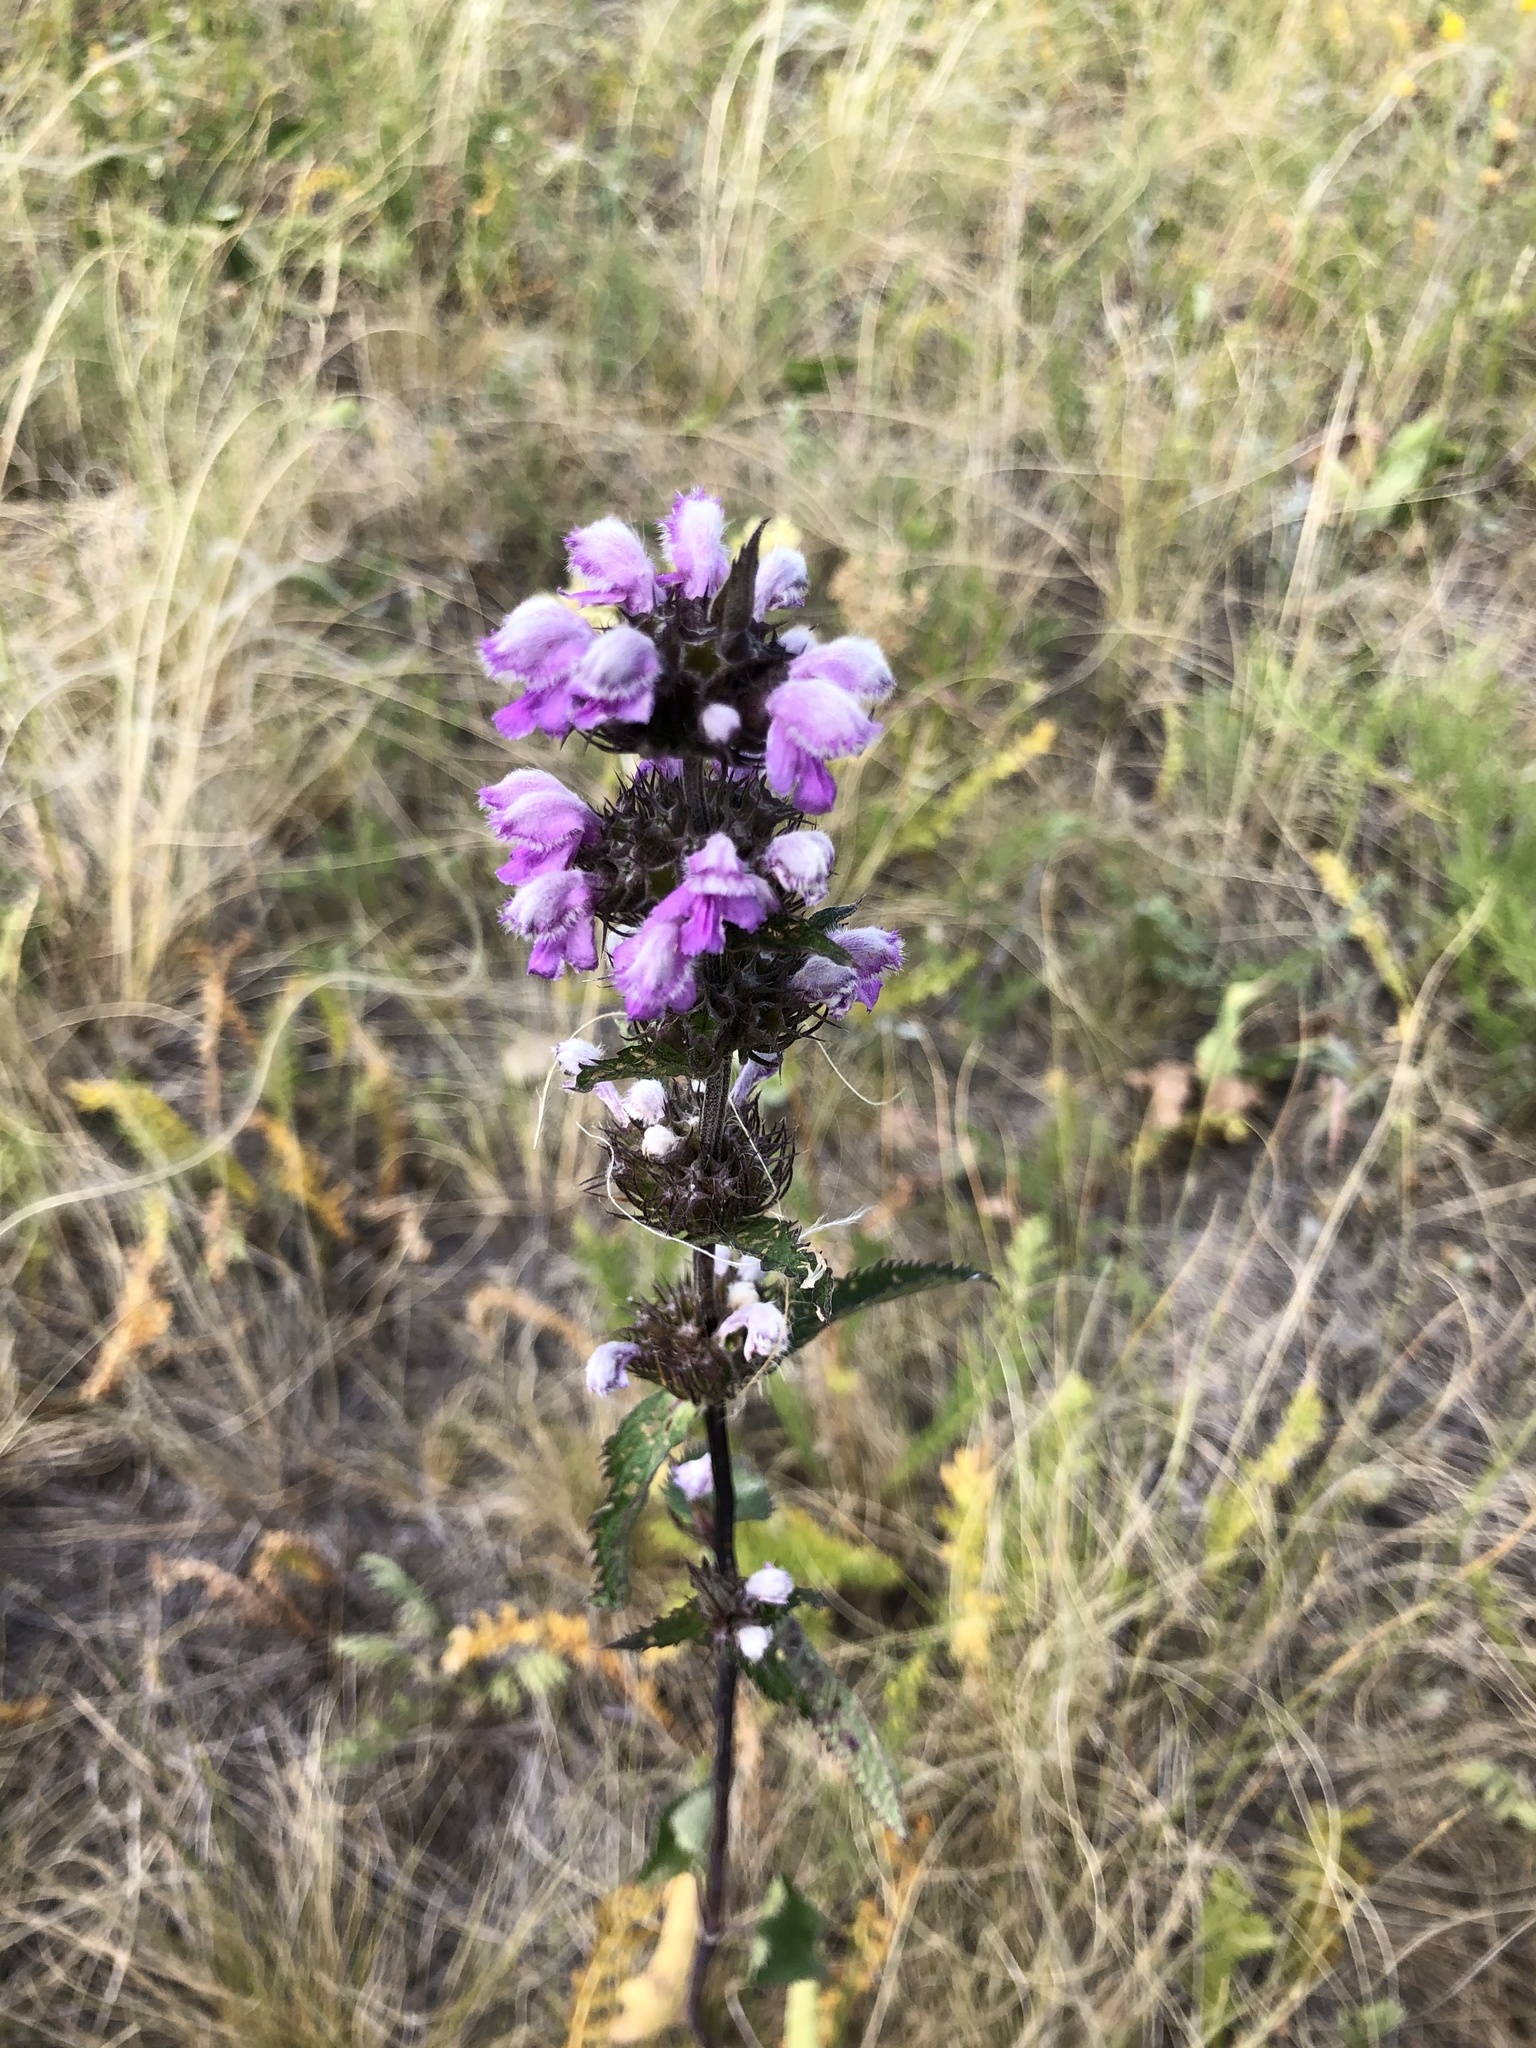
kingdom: Plantae
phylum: Tracheophyta
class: Magnoliopsida
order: Lamiales
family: Lamiaceae
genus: Phlomoides
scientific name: Phlomoides tuberosa
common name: Tuberous jerusalem sage
